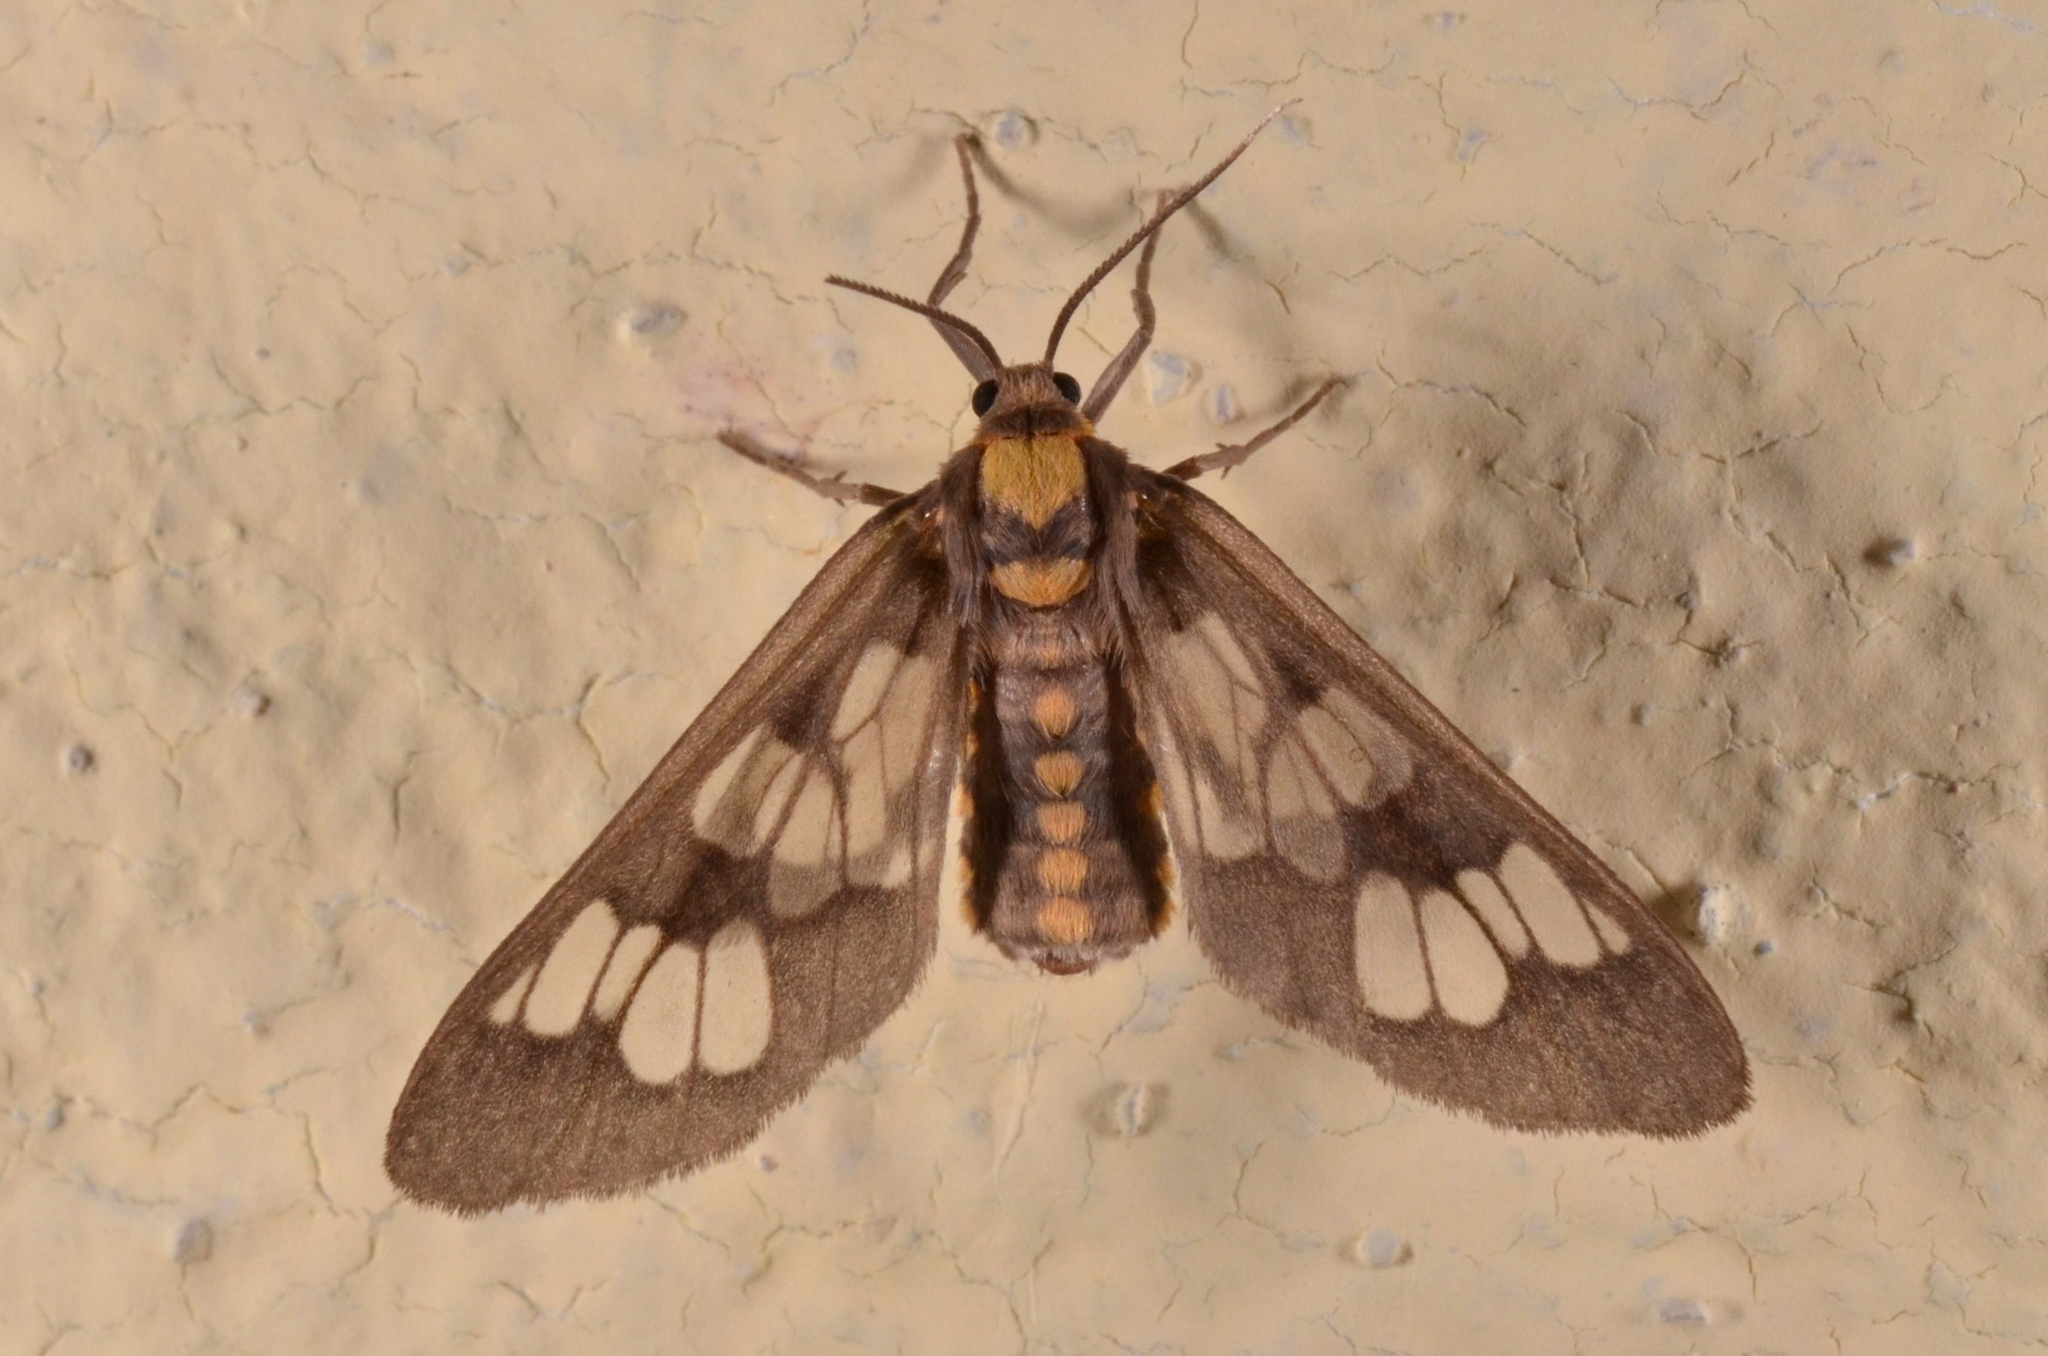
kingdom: Animalia
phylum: Arthropoda
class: Insecta
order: Lepidoptera
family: Erebidae
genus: Eressa
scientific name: Eressa confinis
